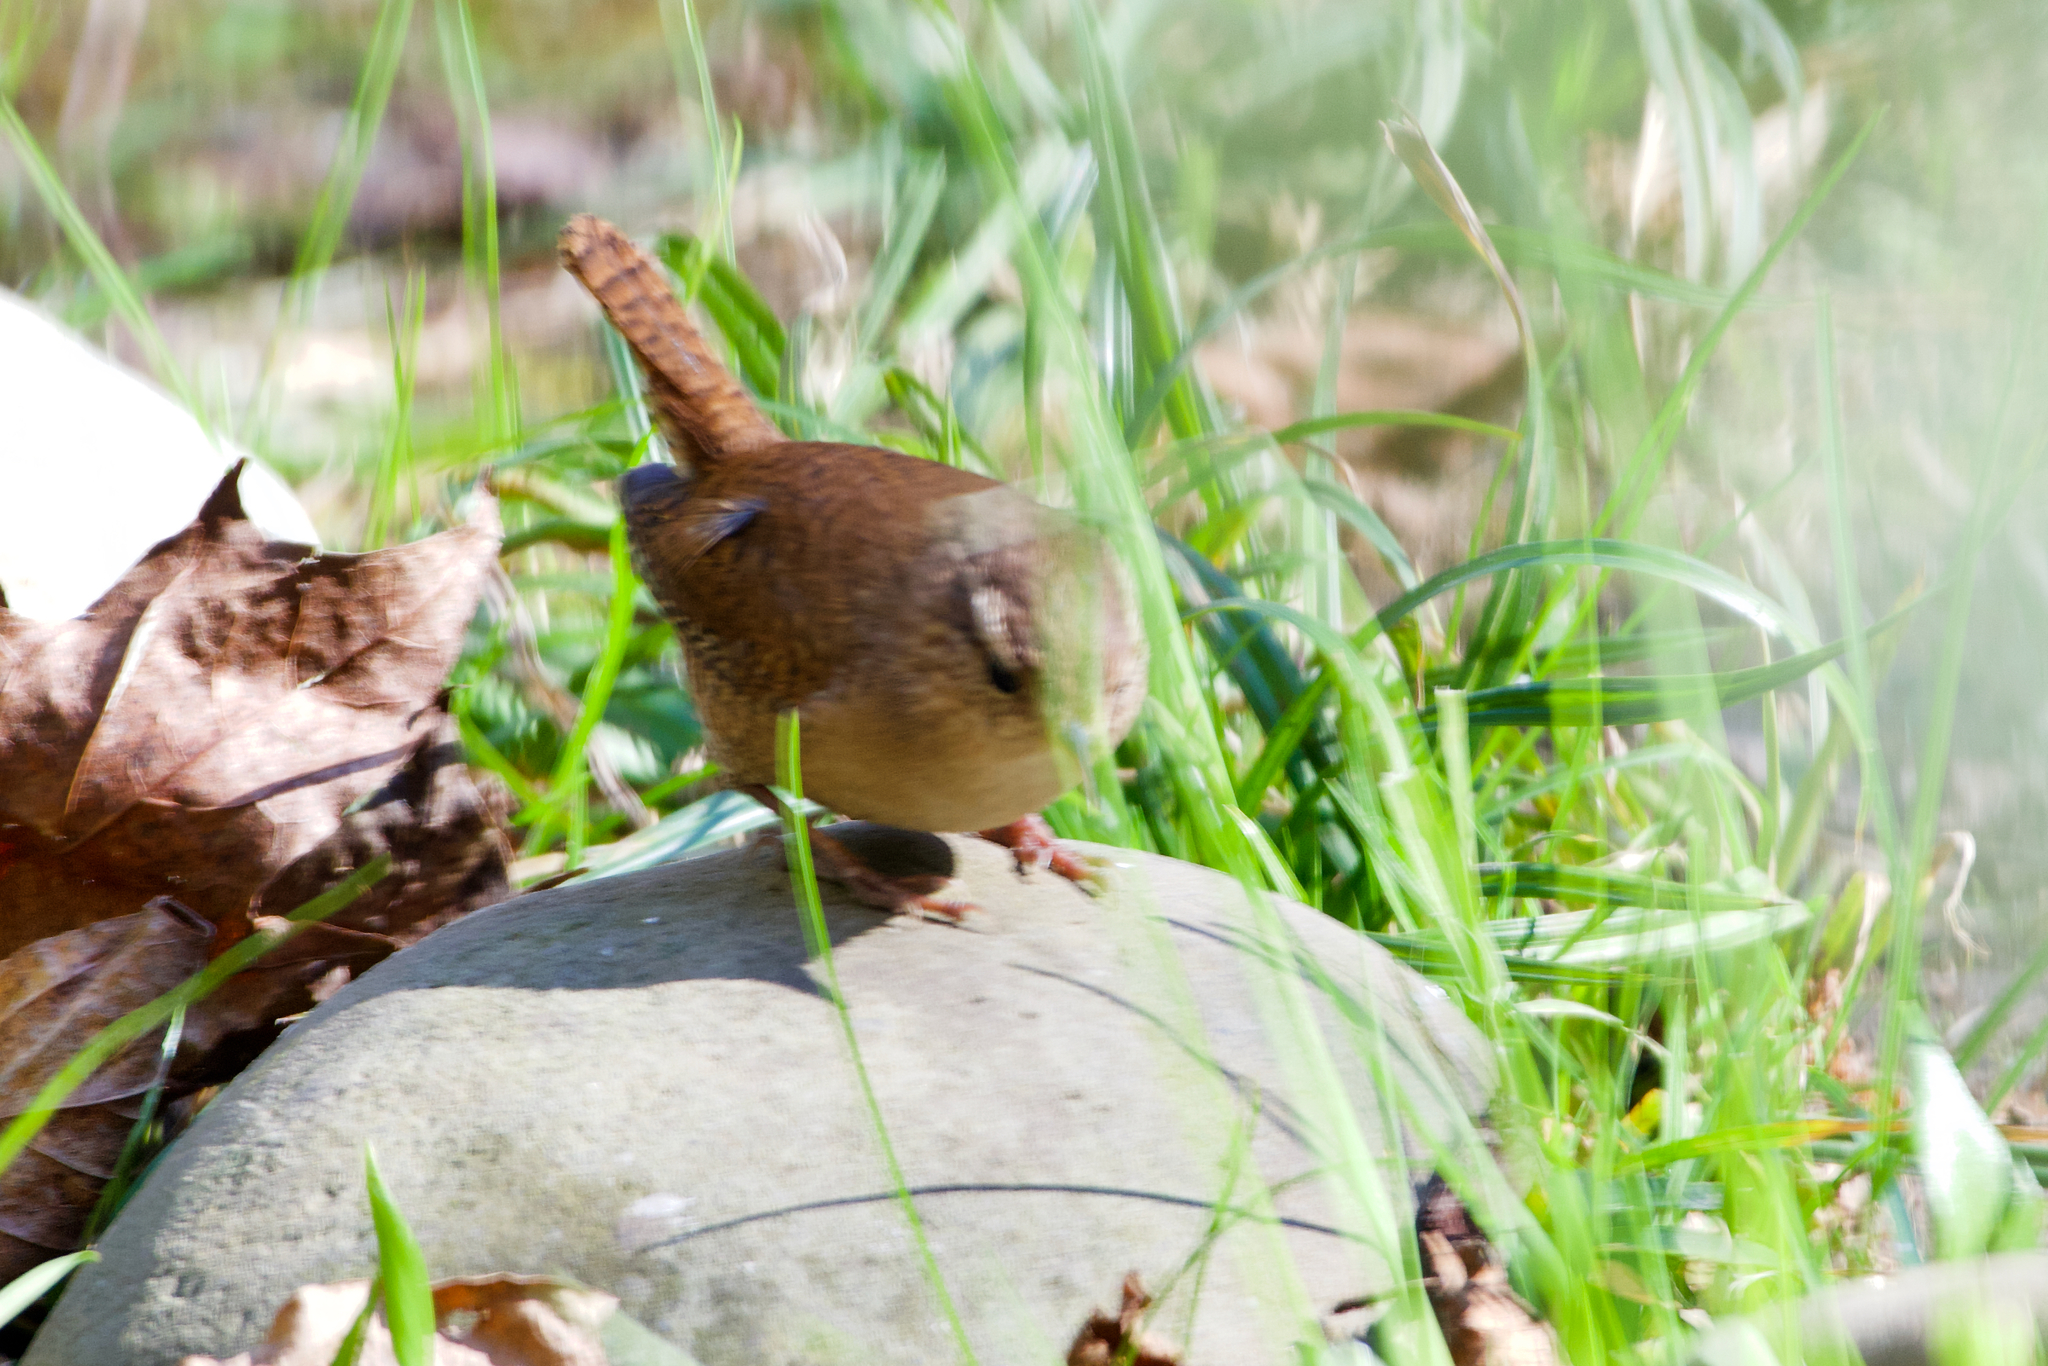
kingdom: Animalia
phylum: Chordata
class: Aves
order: Passeriformes
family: Troglodytidae
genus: Troglodytes
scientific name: Troglodytes troglodytes
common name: Eurasian wren
